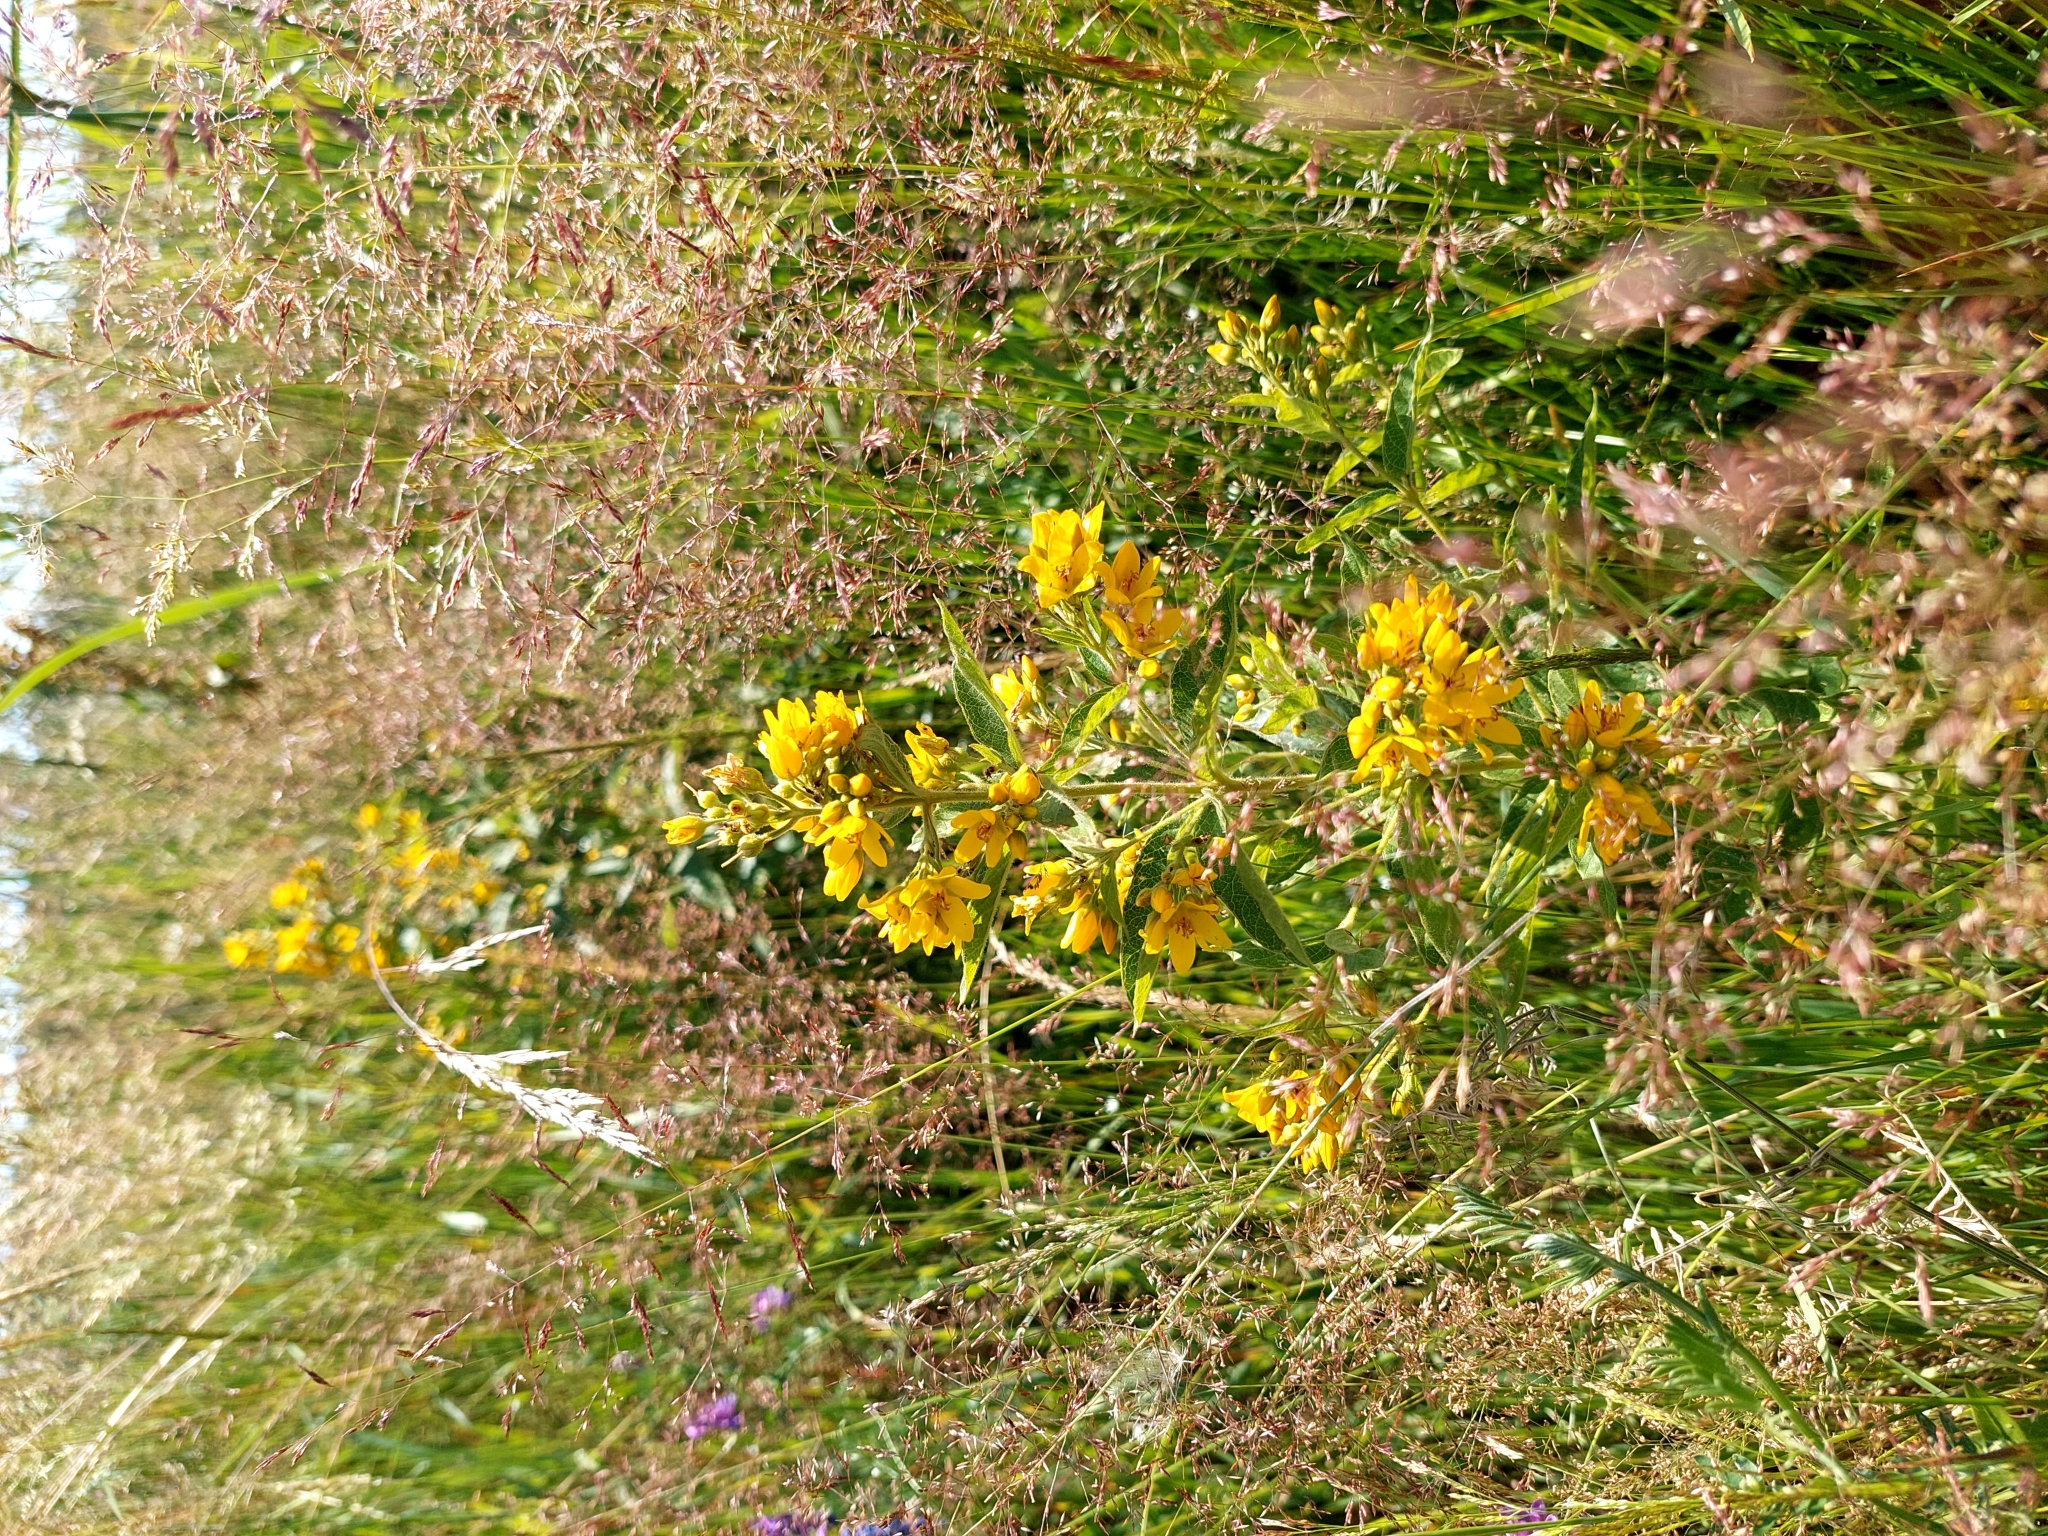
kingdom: Plantae
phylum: Tracheophyta
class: Magnoliopsida
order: Ericales
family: Primulaceae
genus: Lysimachia
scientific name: Lysimachia vulgaris
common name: Yellow loosestrife
